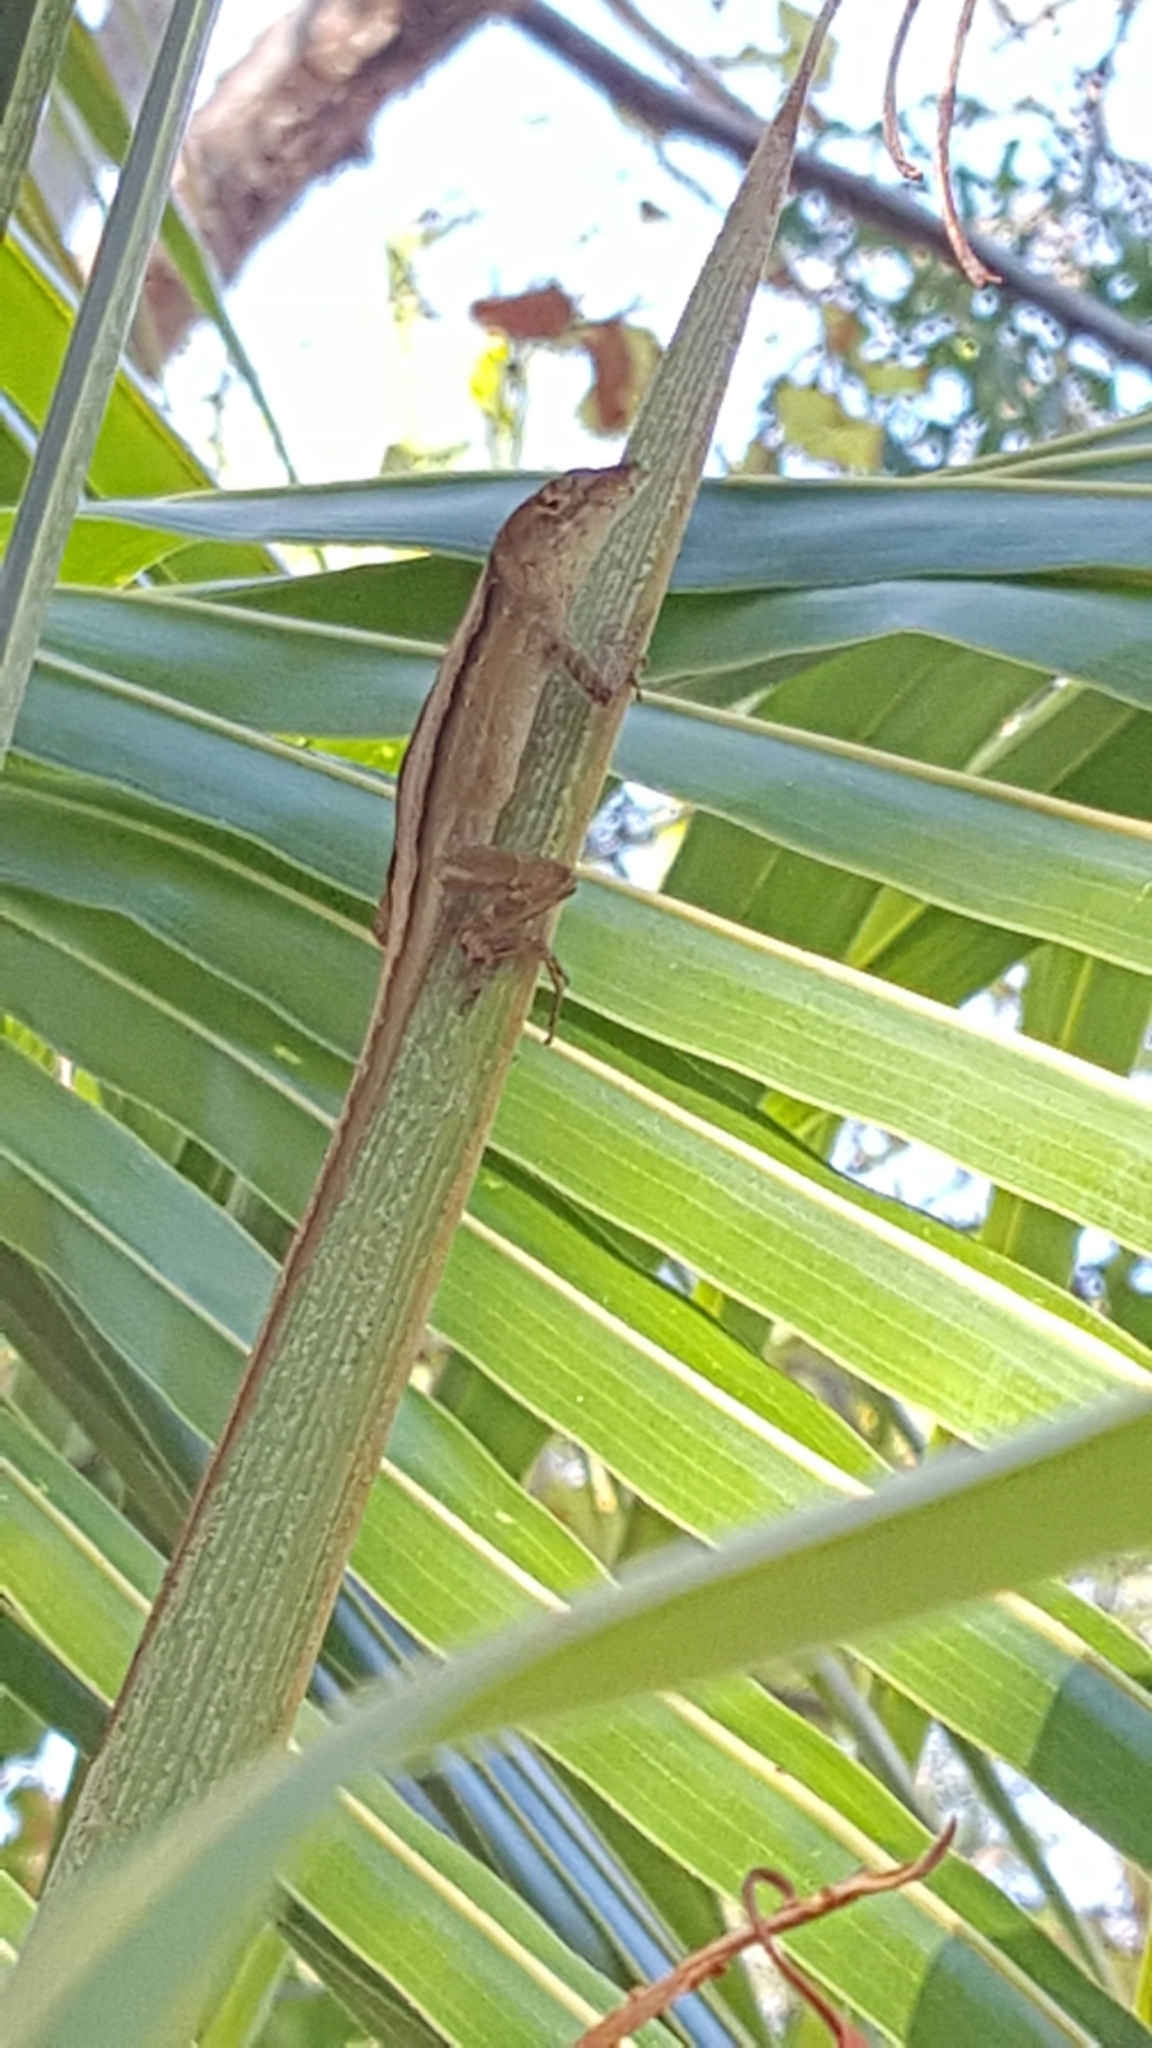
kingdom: Animalia
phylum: Chordata
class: Squamata
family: Dactyloidae
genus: Anolis
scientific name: Anolis sagrei
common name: Brown anole
